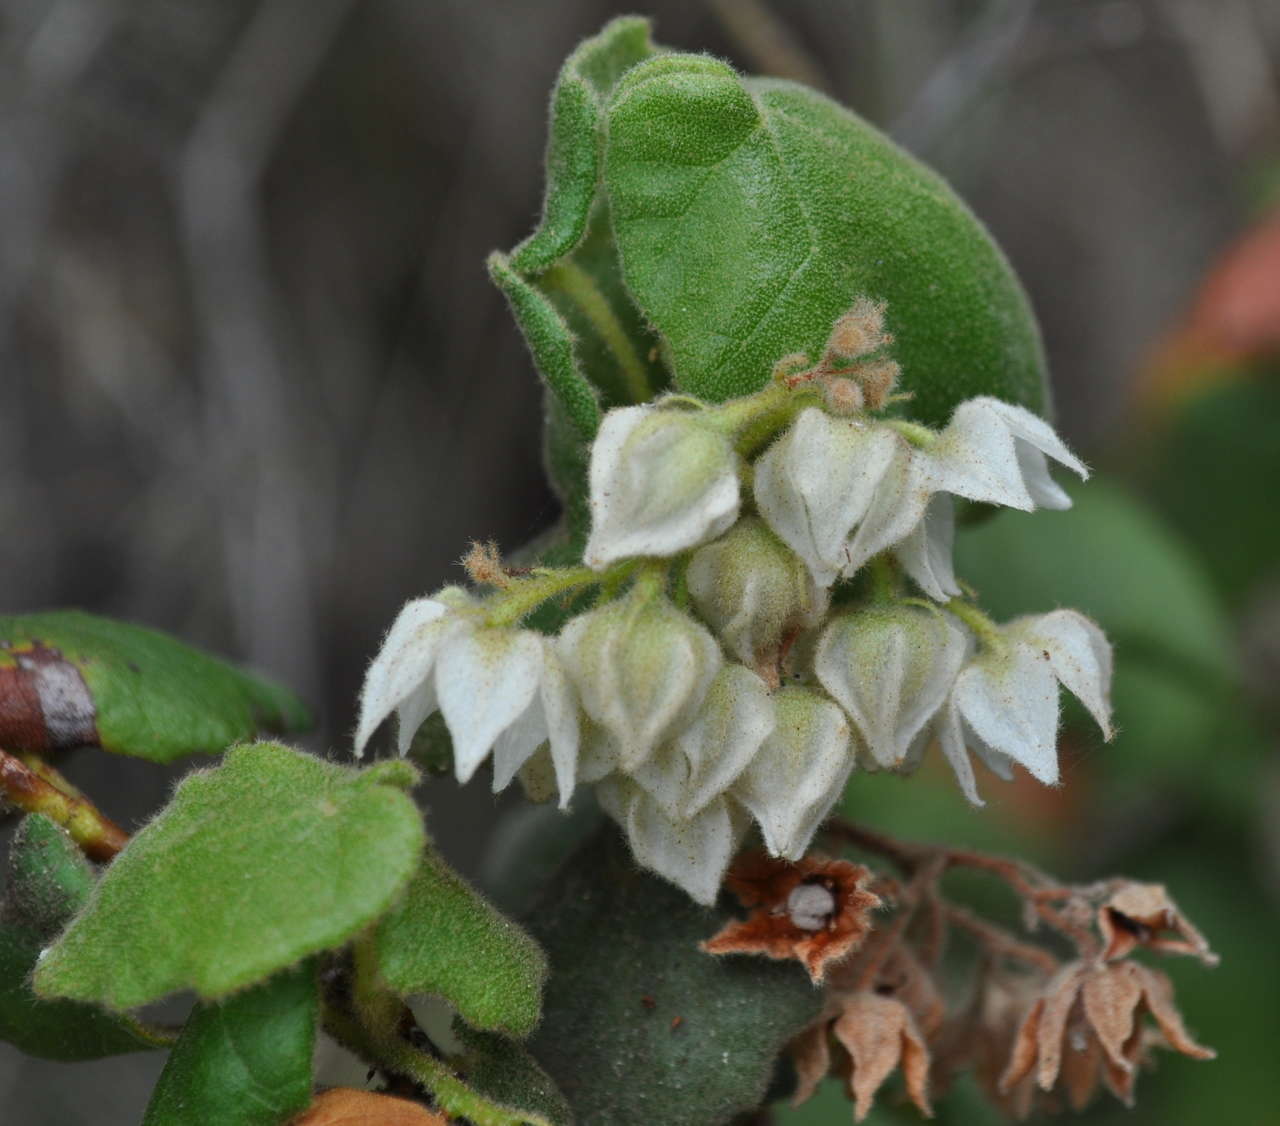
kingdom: Plantae
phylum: Tracheophyta
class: Magnoliopsida
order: Malvales
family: Malvaceae
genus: Lasiopetalum
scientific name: Lasiopetalum schulzenii
